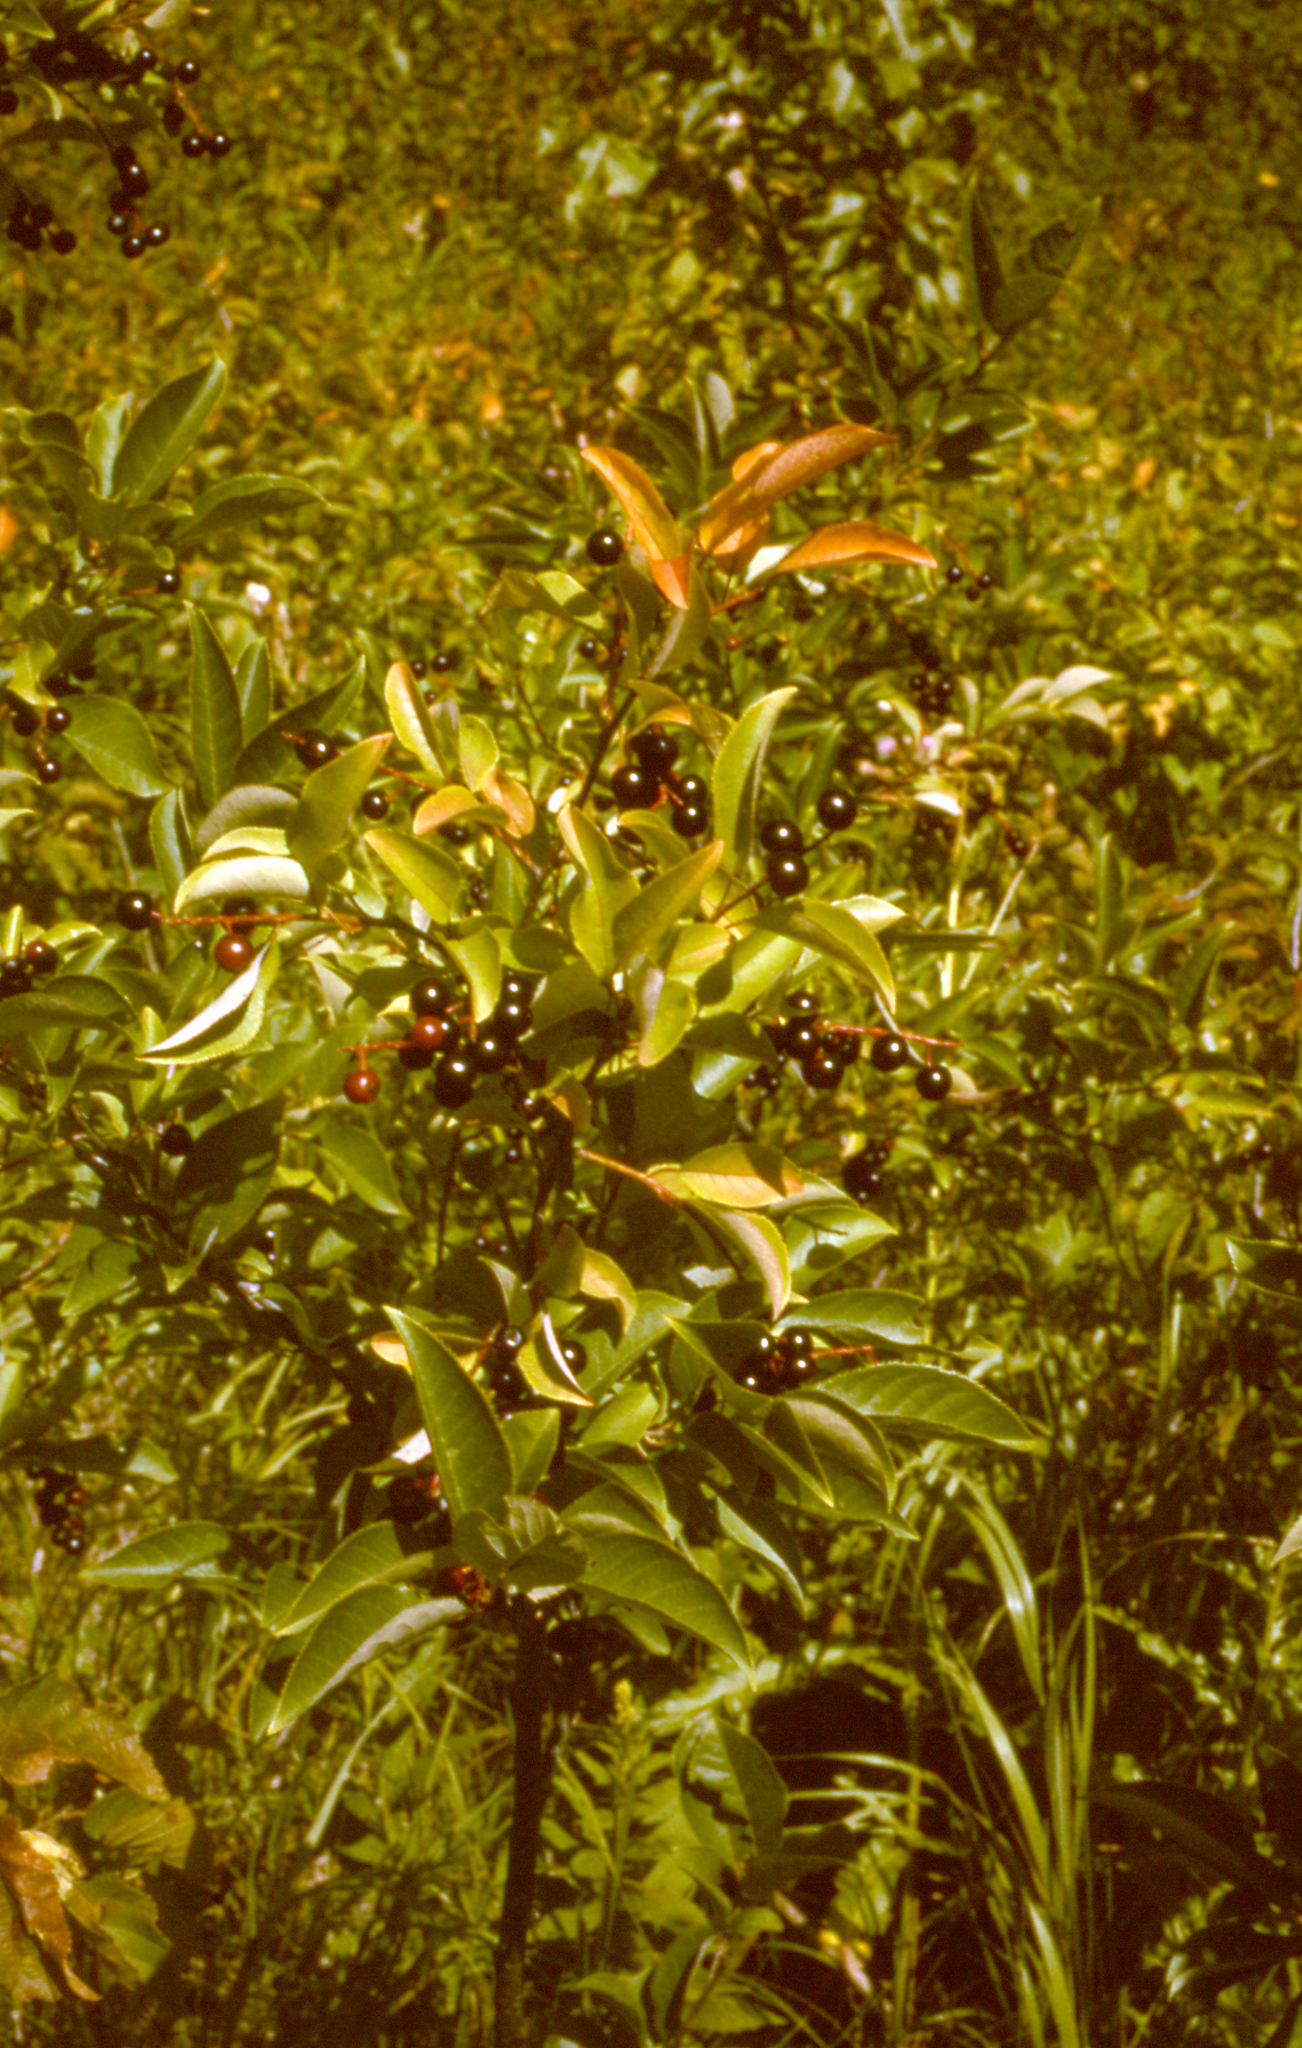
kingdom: Plantae
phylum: Tracheophyta
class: Magnoliopsida
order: Rosales
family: Rosaceae
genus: Prunus
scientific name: Prunus virginiana
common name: Chokecherry
